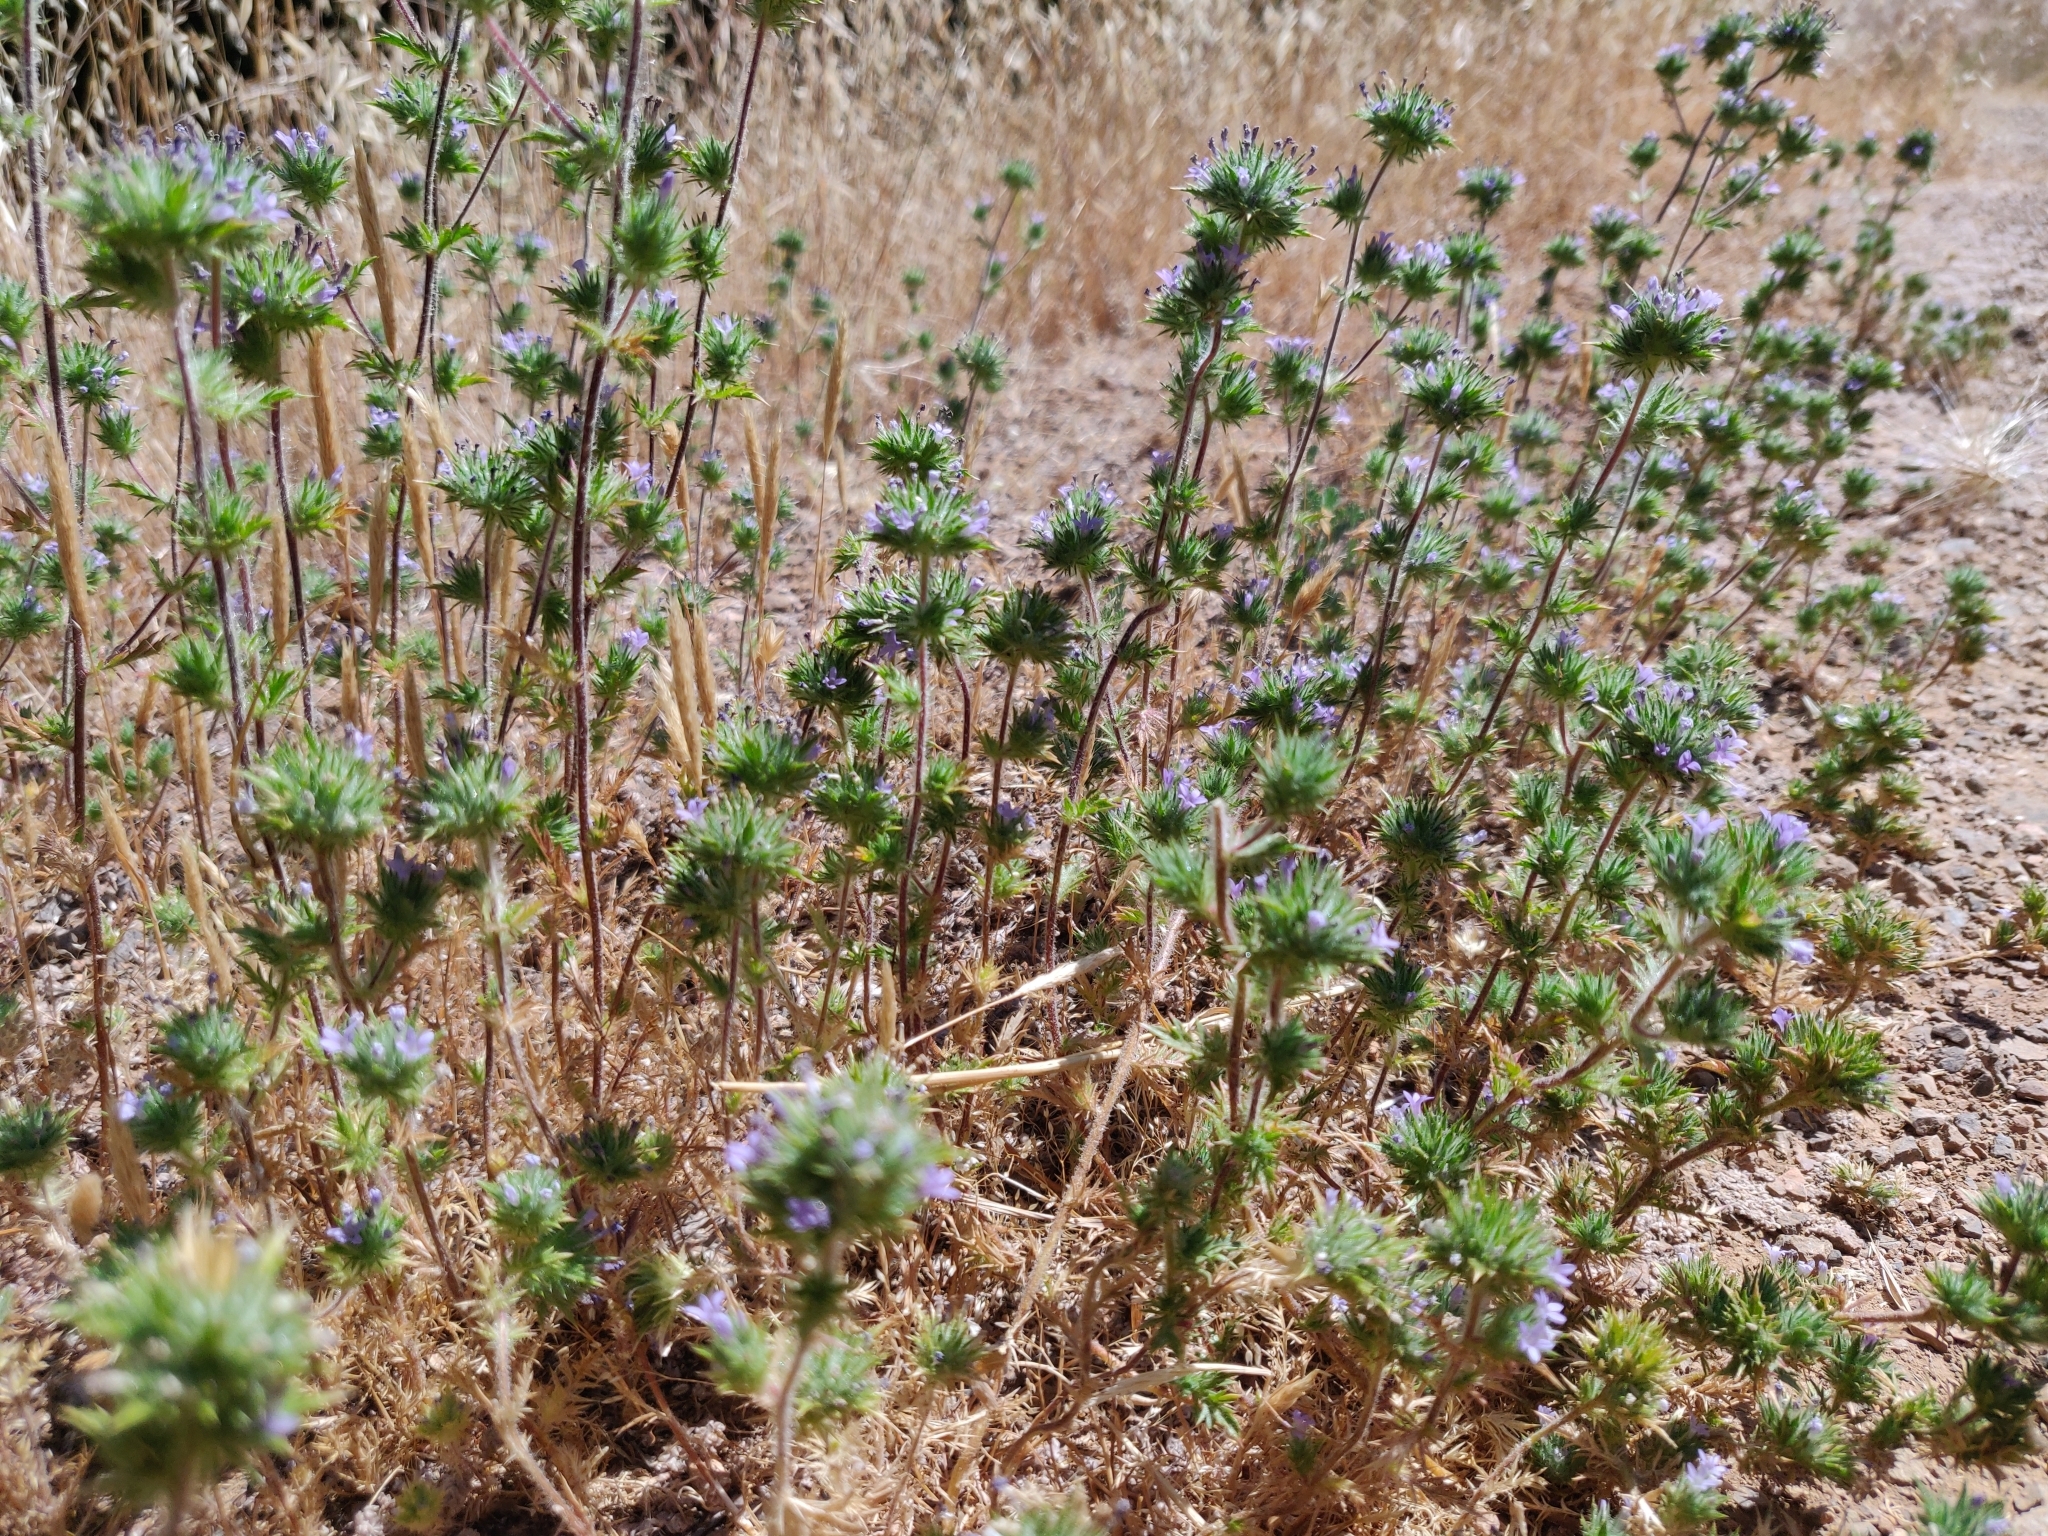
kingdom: Plantae
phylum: Tracheophyta
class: Magnoliopsida
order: Ericales
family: Polemoniaceae
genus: Navarretia
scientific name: Navarretia squarrosa
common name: Skunkweed
